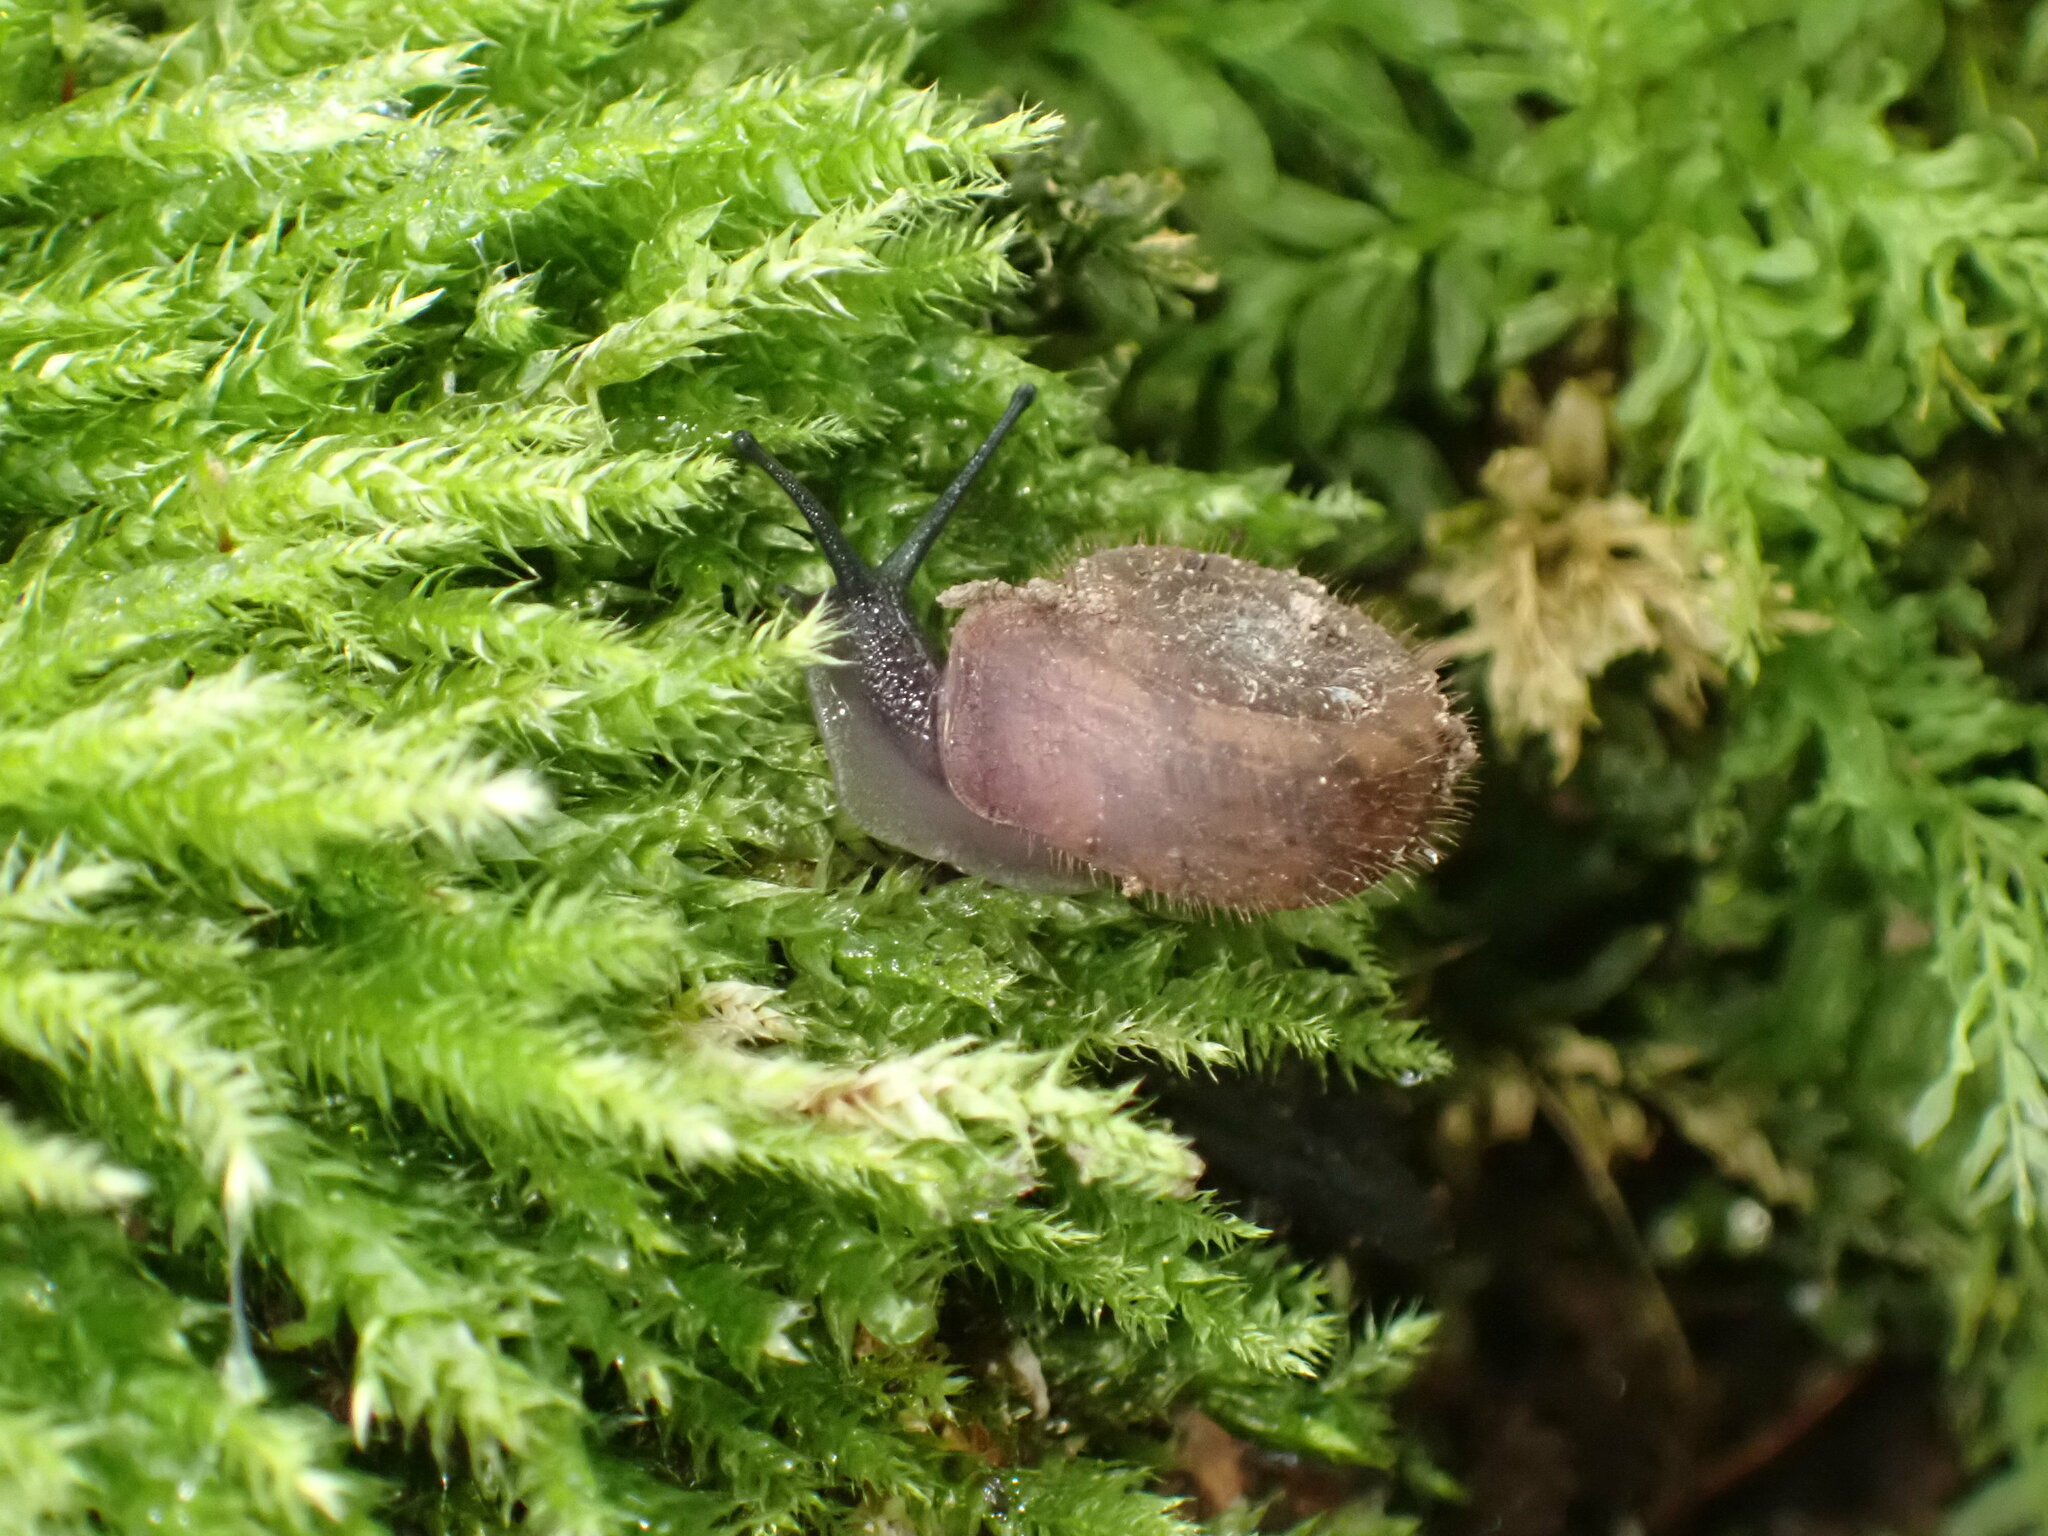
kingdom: Animalia
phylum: Mollusca
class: Gastropoda
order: Stylommatophora
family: Helicodontidae
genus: Helicodonta
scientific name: Helicodonta obvoluta
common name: Cheese snail
